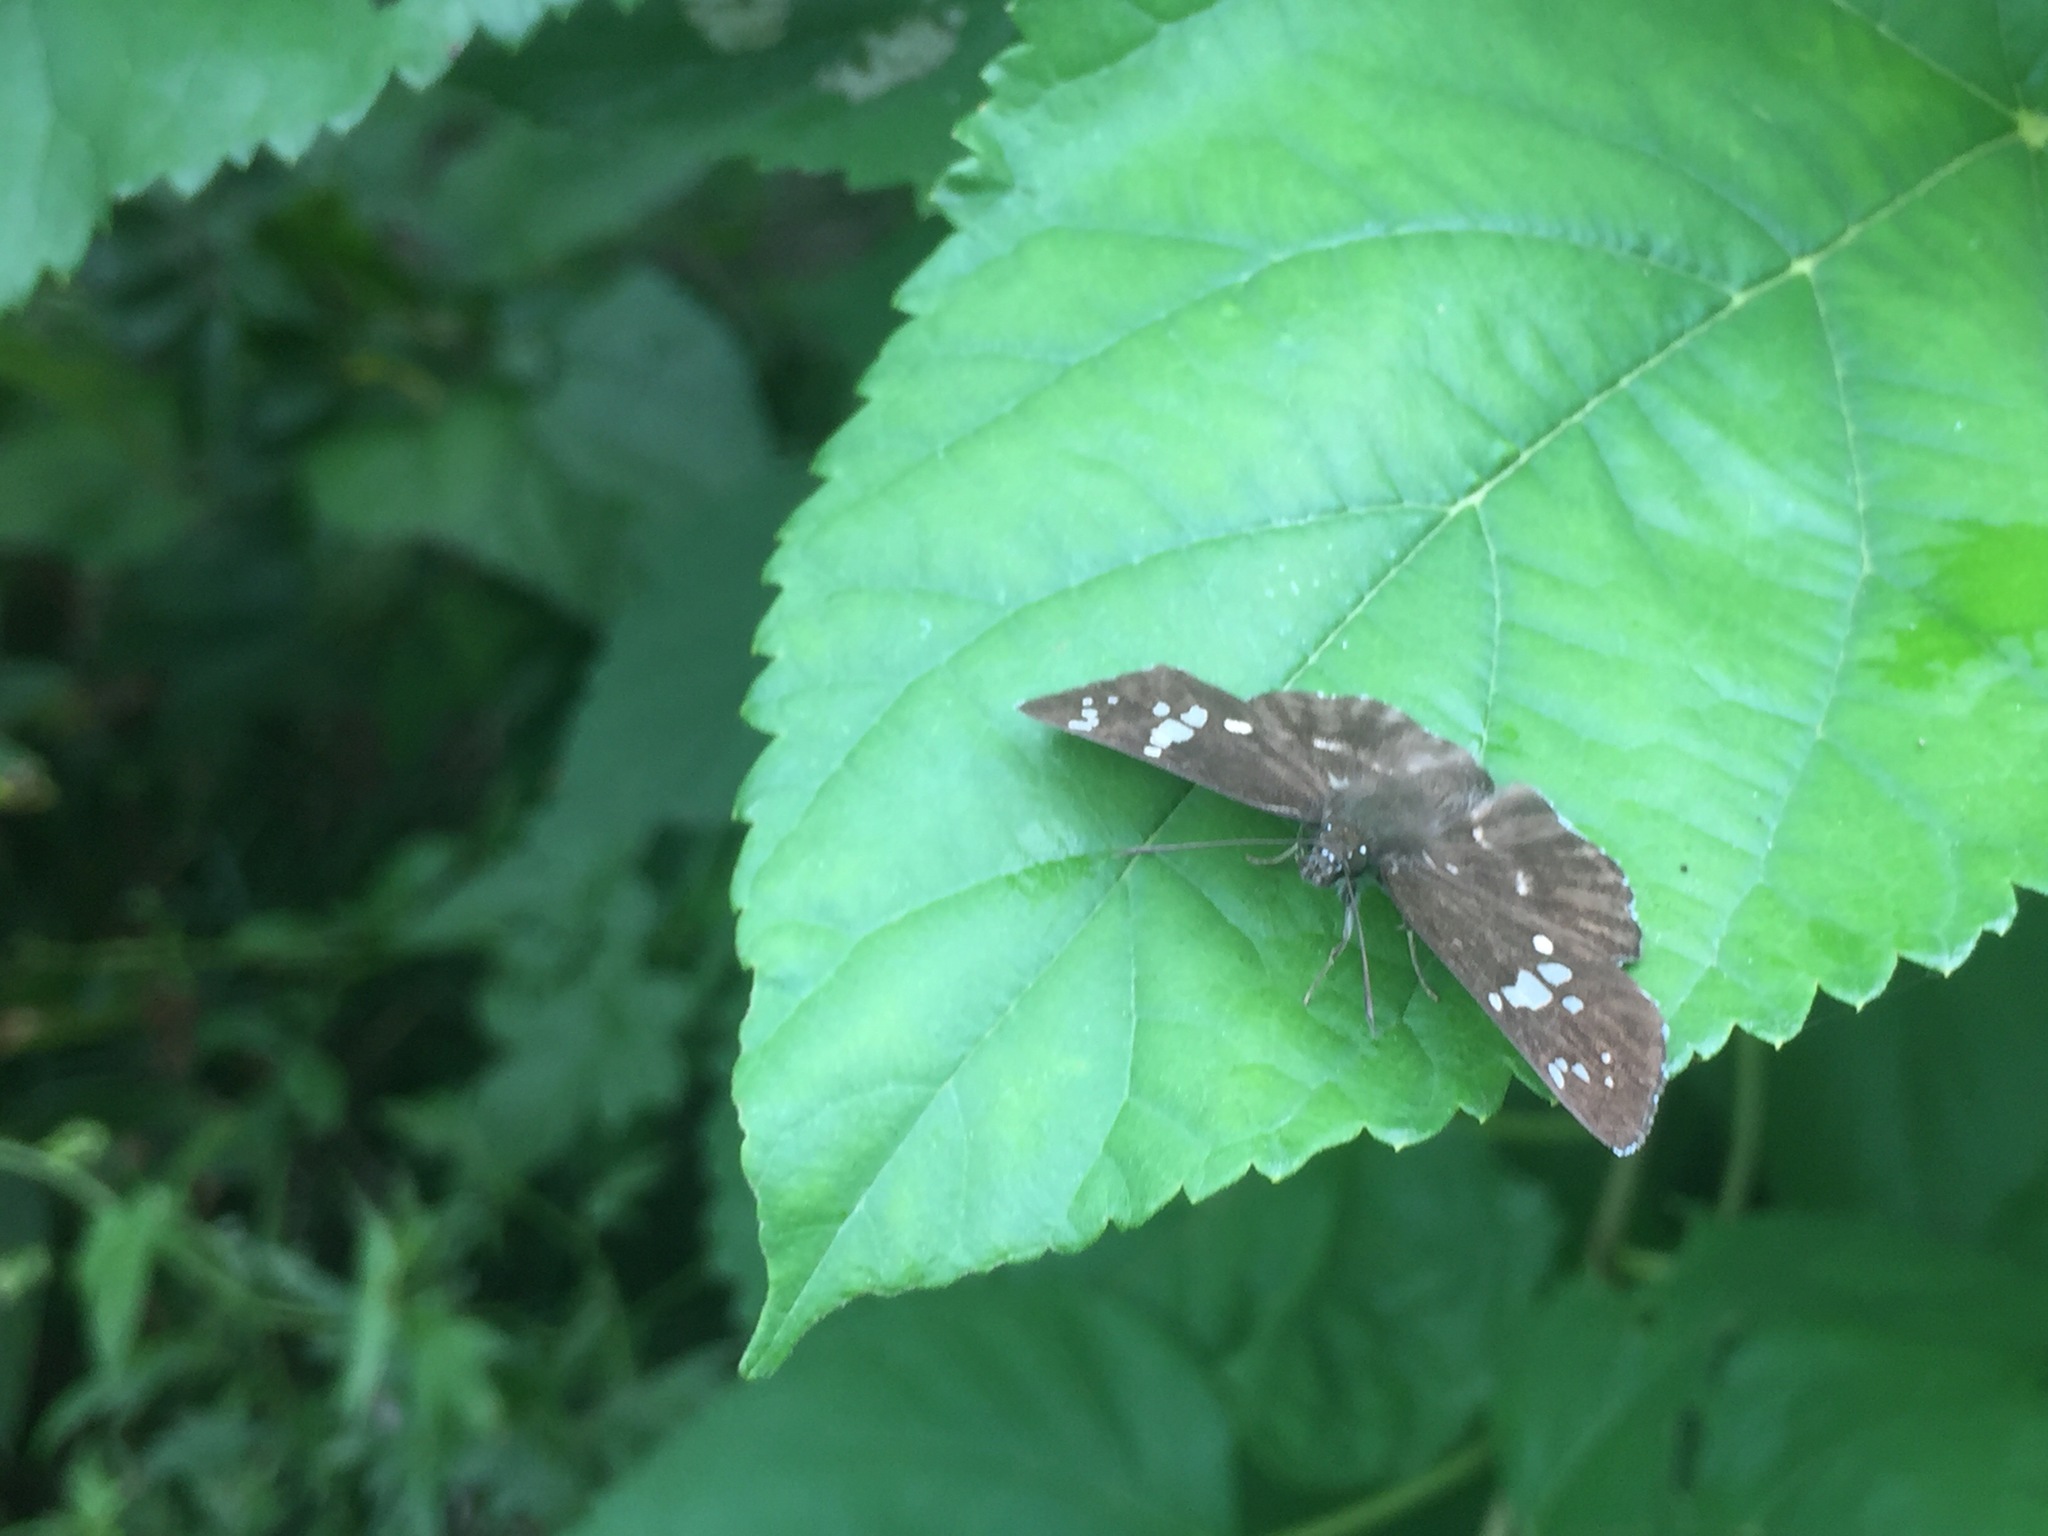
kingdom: Animalia
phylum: Arthropoda
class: Insecta
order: Lepidoptera
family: Hesperiidae
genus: Daimio
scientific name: Daimio tethys
